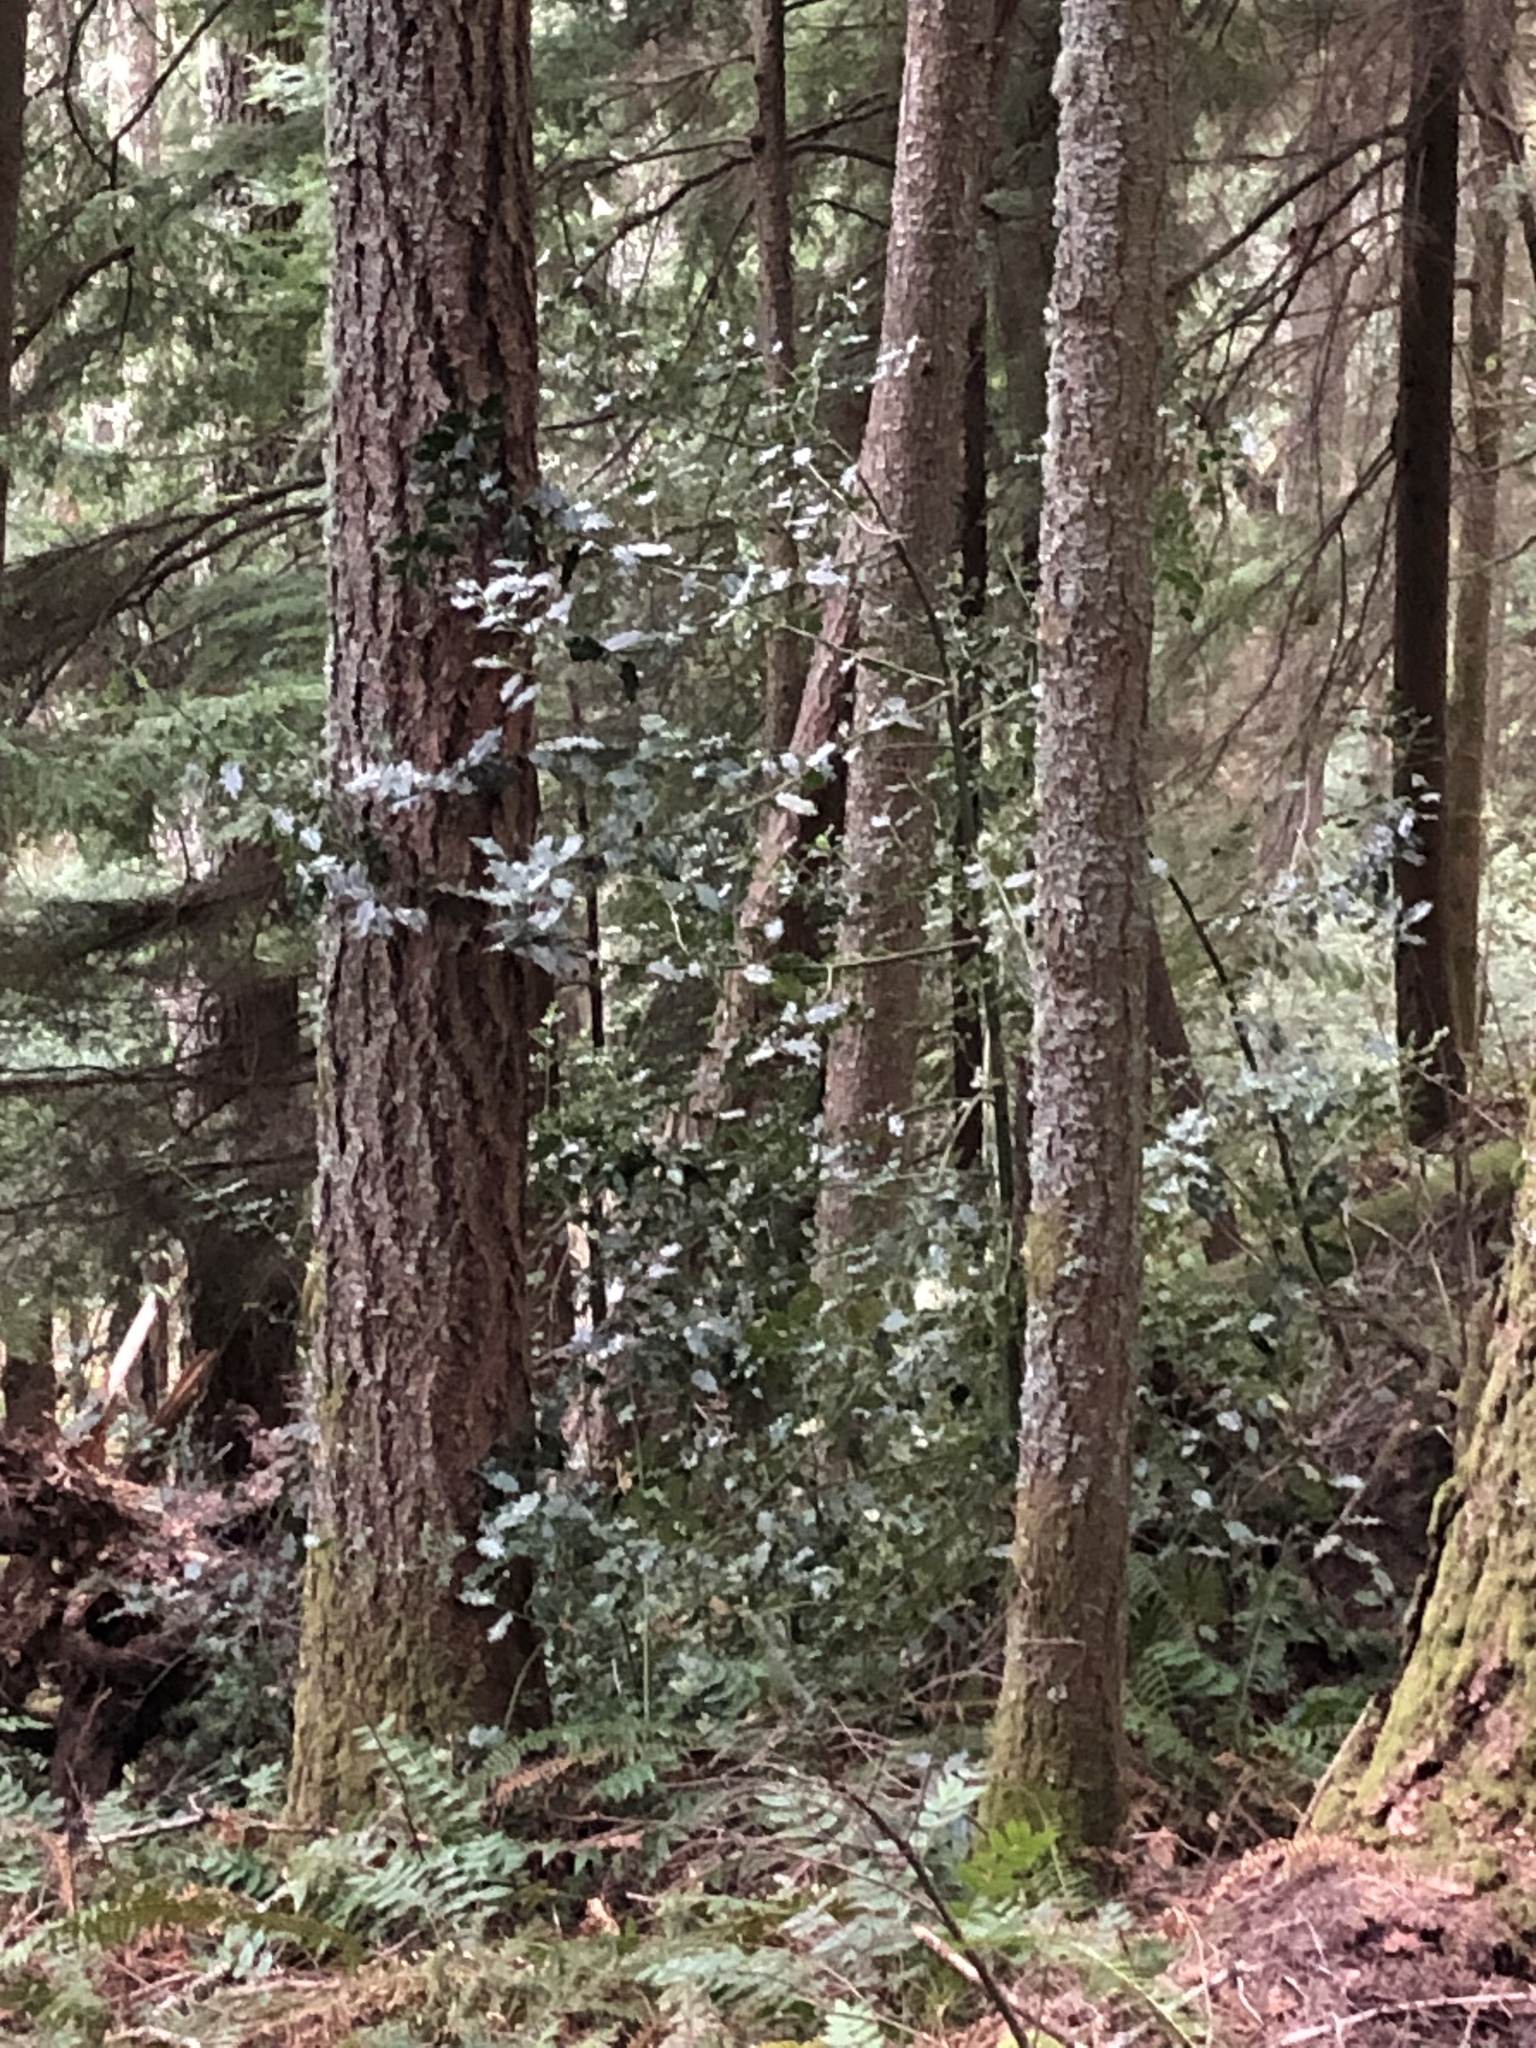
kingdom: Plantae
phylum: Tracheophyta
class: Magnoliopsida
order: Aquifoliales
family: Aquifoliaceae
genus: Ilex
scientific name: Ilex aquifolium
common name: English holly
